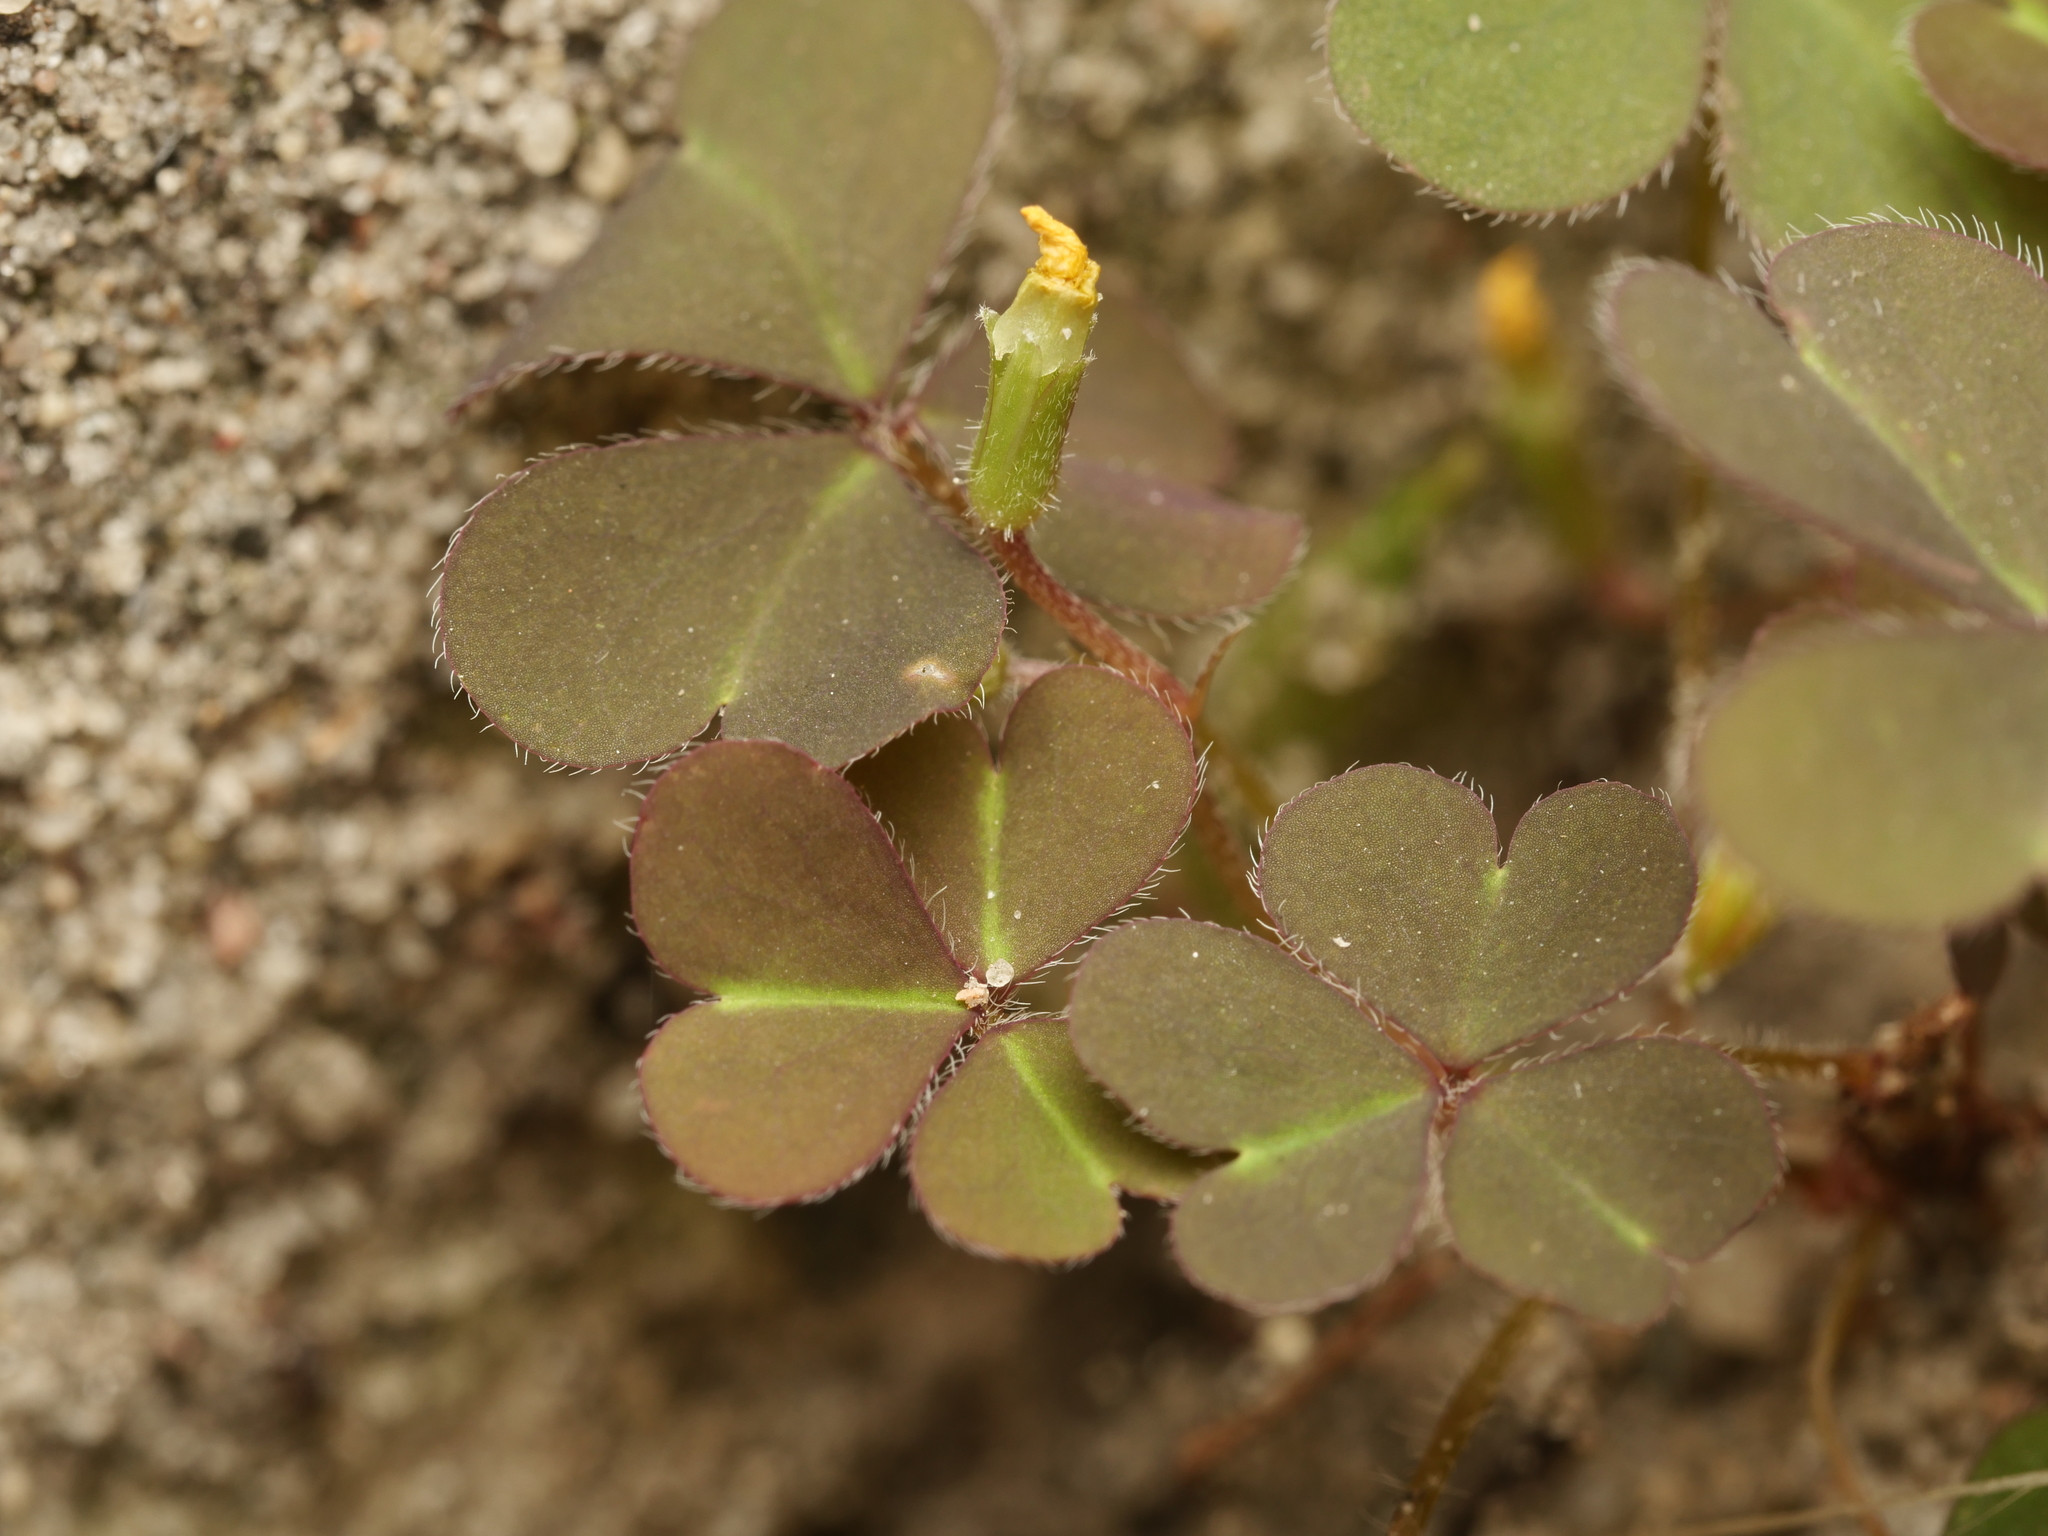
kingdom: Plantae
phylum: Tracheophyta
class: Magnoliopsida
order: Oxalidales
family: Oxalidaceae
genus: Oxalis
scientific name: Oxalis corniculata
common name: Procumbent yellow-sorrel
